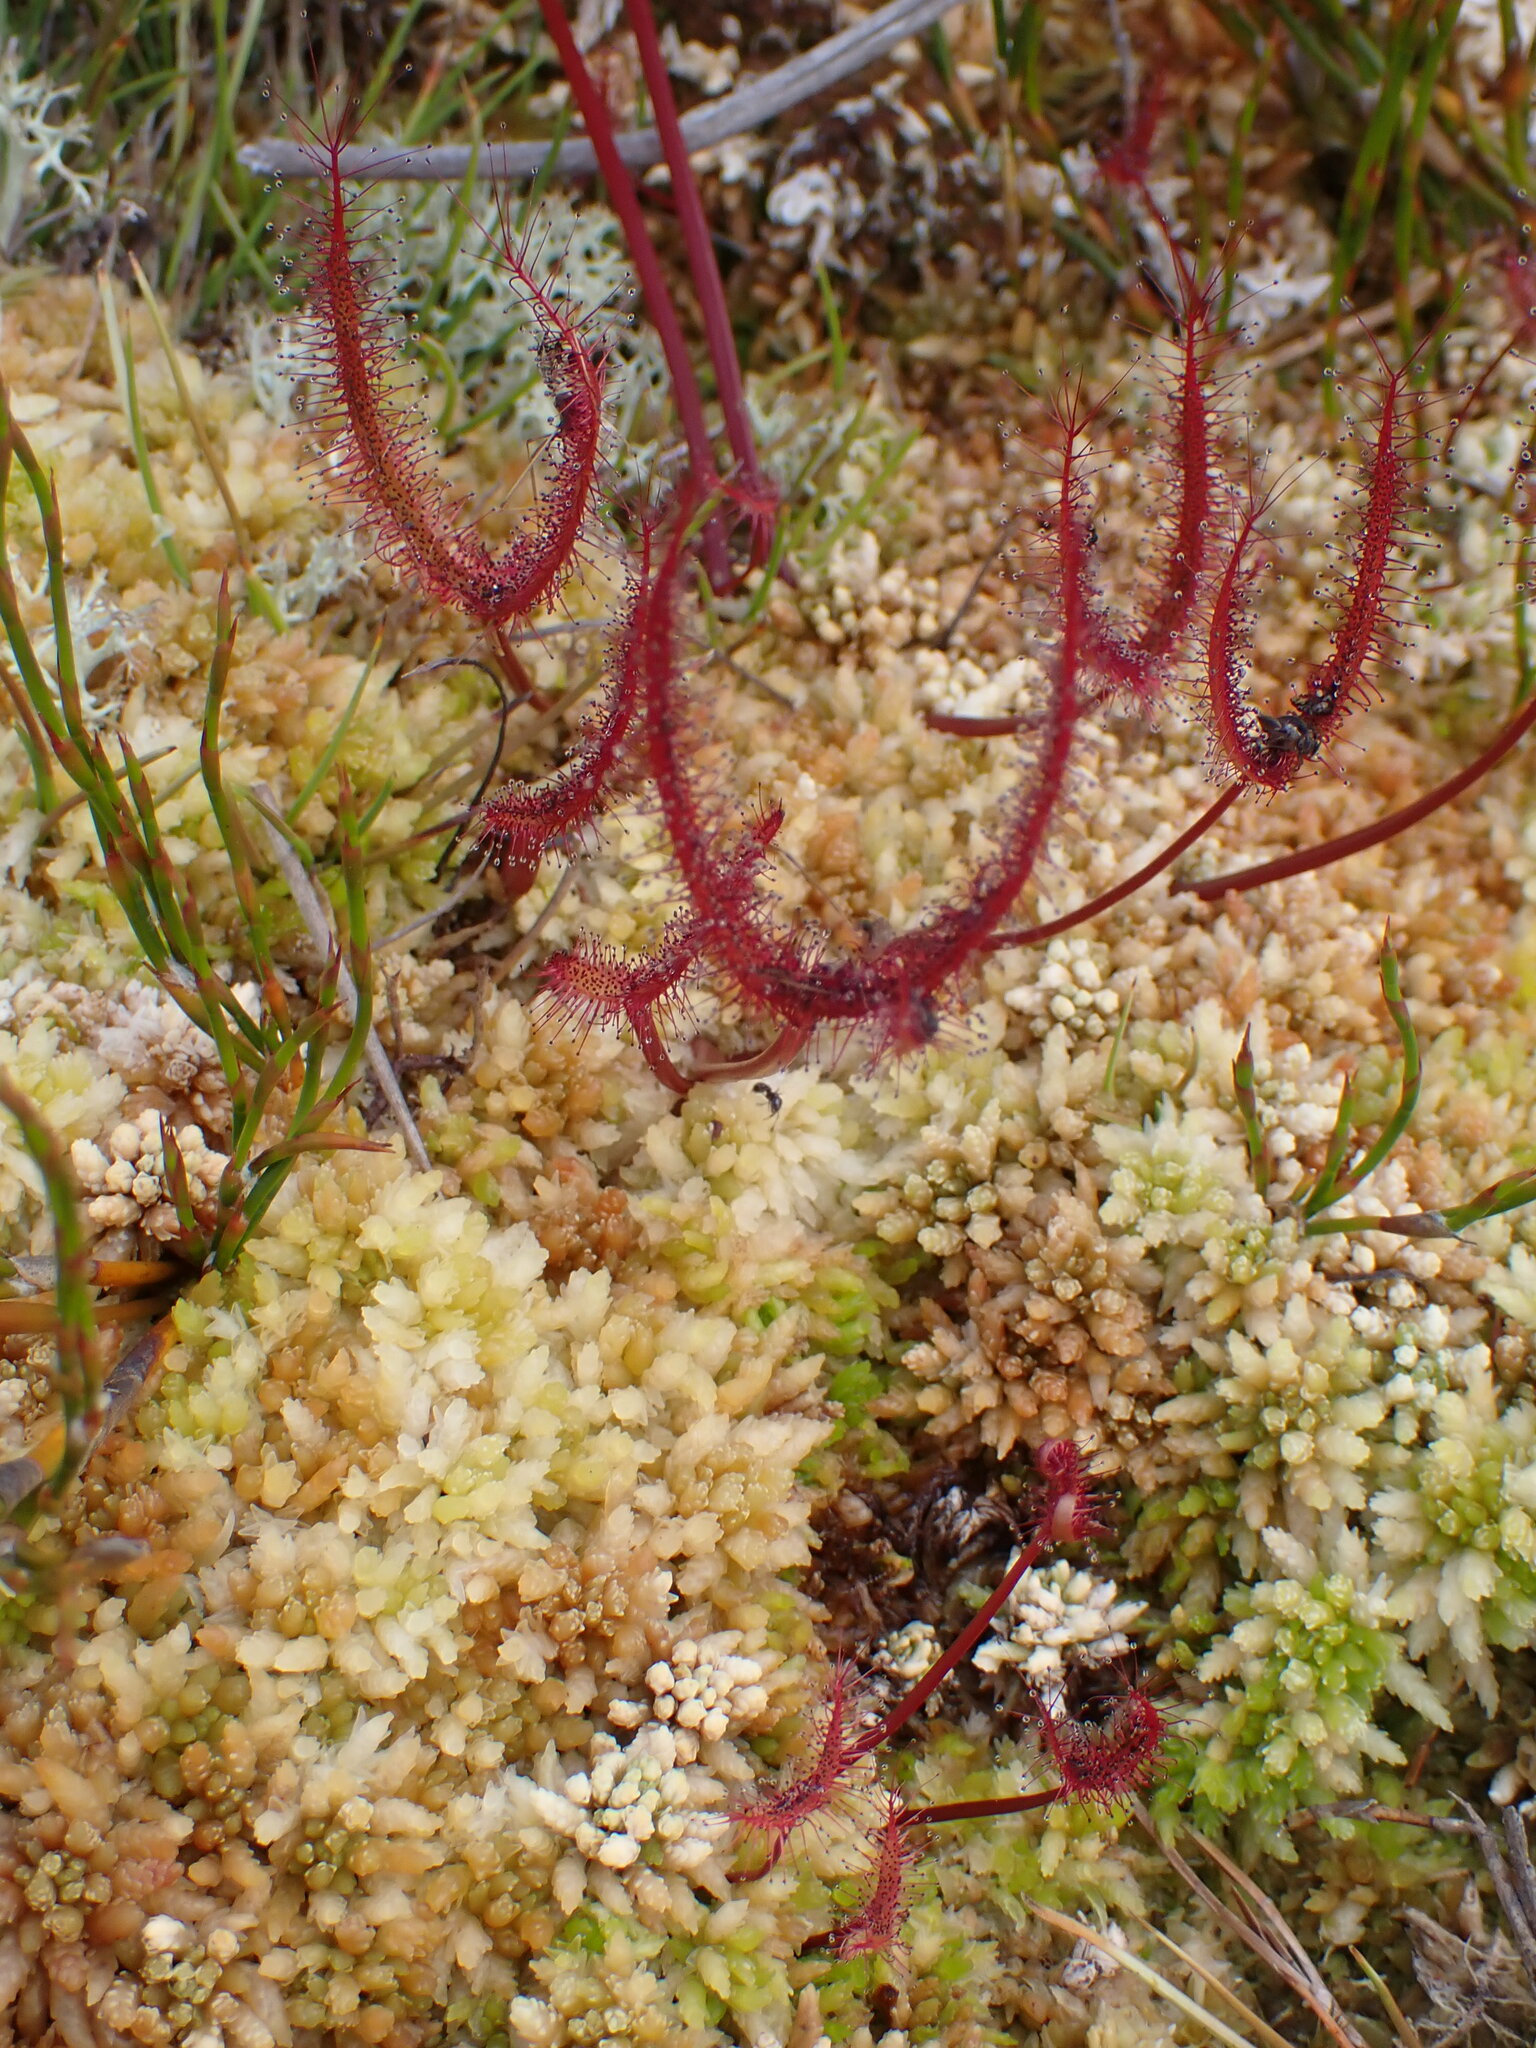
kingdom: Plantae
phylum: Tracheophyta
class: Magnoliopsida
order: Caryophyllales
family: Droseraceae
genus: Drosera
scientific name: Drosera binata
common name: Forked sundew
